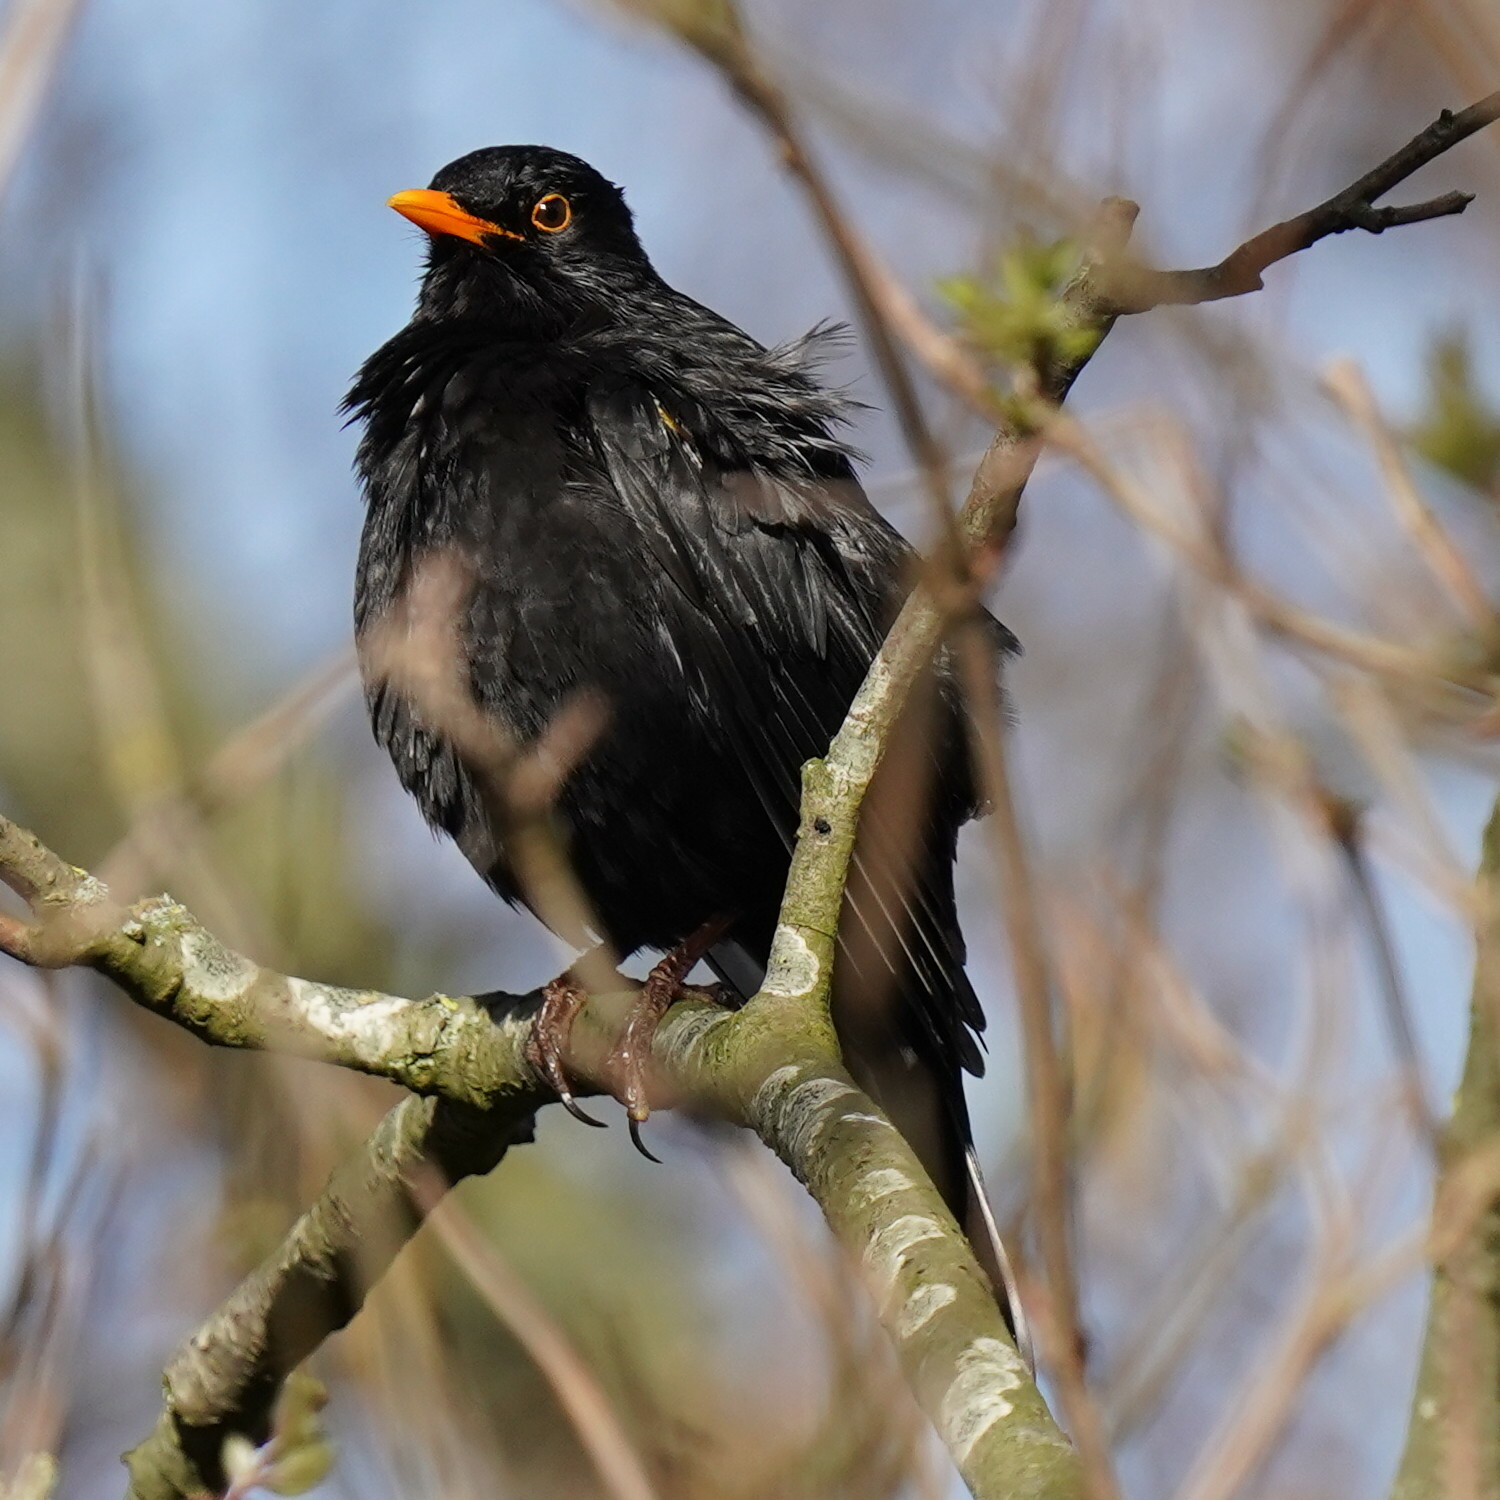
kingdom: Animalia
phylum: Chordata
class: Aves
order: Passeriformes
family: Turdidae
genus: Turdus
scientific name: Turdus merula
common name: Common blackbird
